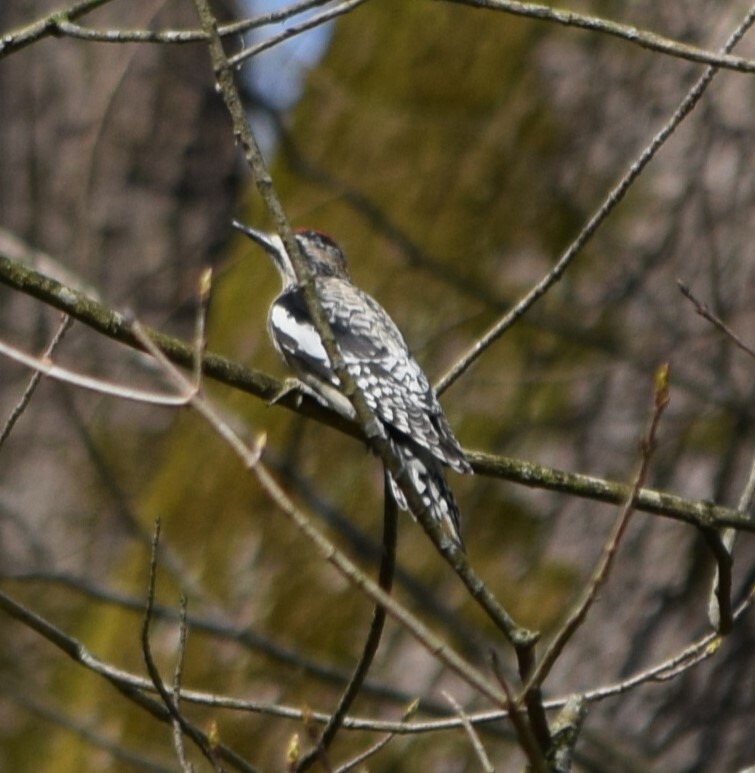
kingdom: Animalia
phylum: Chordata
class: Aves
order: Piciformes
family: Picidae
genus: Sphyrapicus
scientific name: Sphyrapicus varius
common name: Yellow-bellied sapsucker
